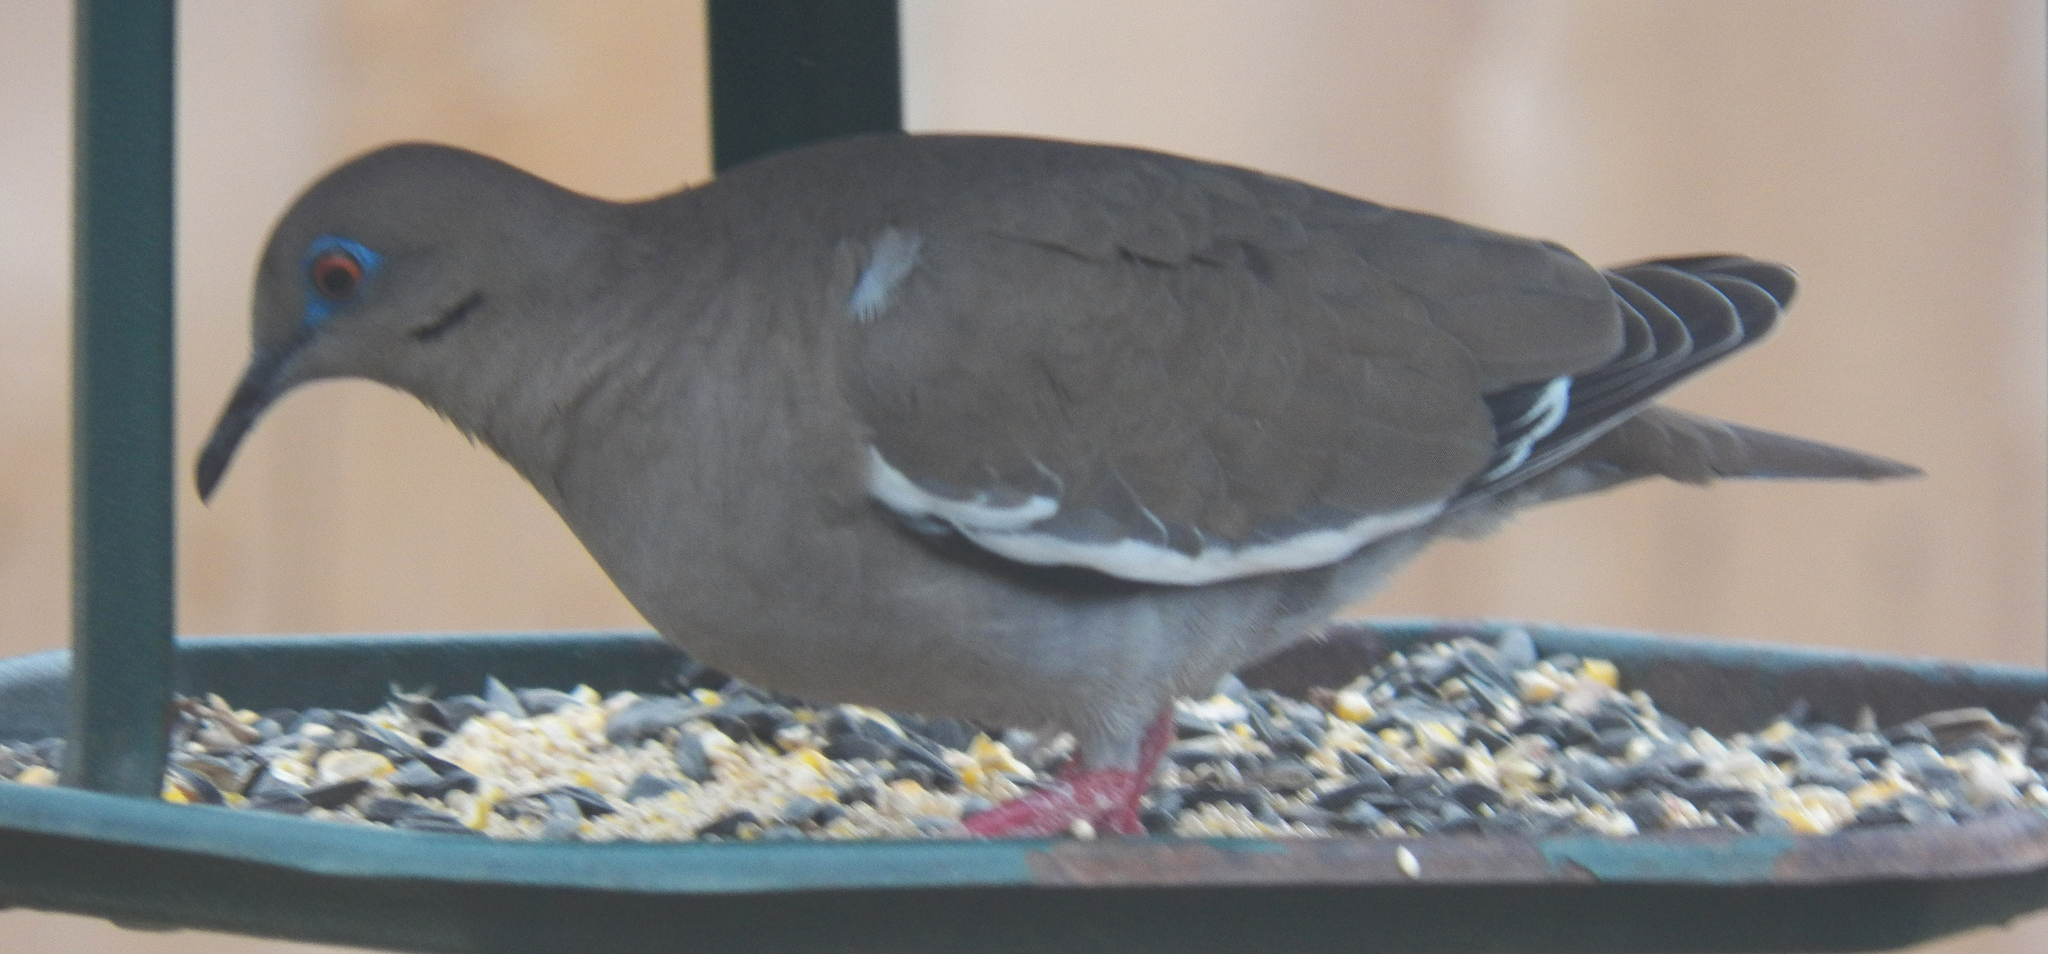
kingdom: Animalia
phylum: Chordata
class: Aves
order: Columbiformes
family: Columbidae
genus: Zenaida
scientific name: Zenaida asiatica
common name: White-winged dove
